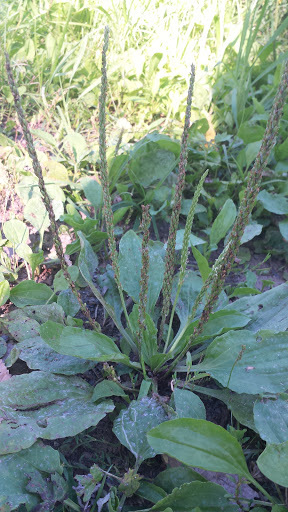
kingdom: Plantae
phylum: Tracheophyta
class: Magnoliopsida
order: Lamiales
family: Plantaginaceae
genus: Plantago
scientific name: Plantago major
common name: Common plantain
